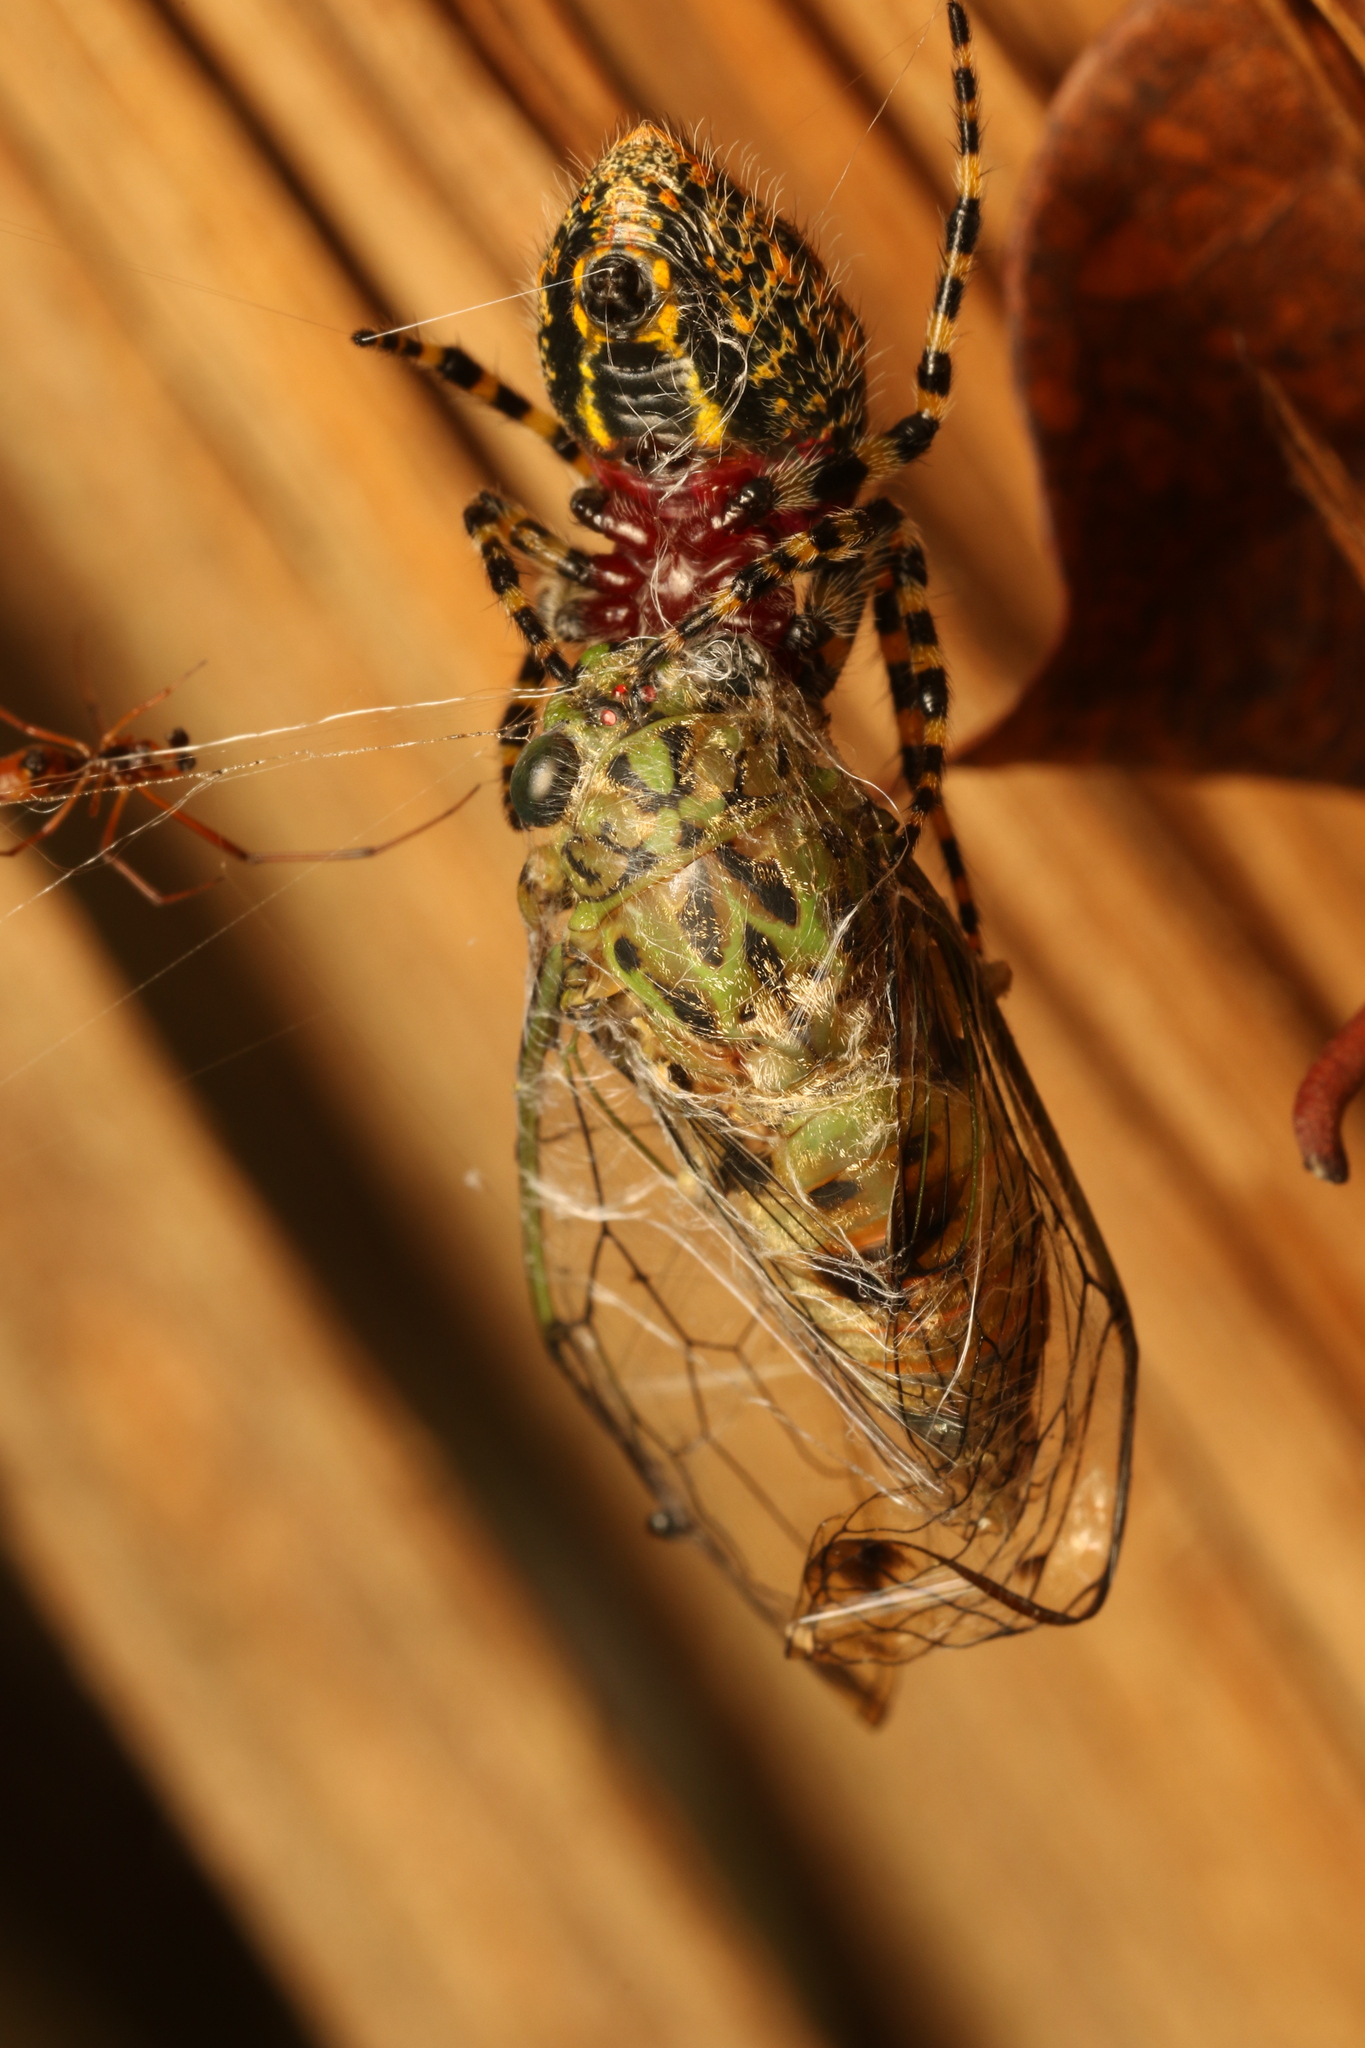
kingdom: Animalia
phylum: Arthropoda
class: Arachnida
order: Araneae
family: Araneidae
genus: Alpaida
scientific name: Alpaida alticeps
